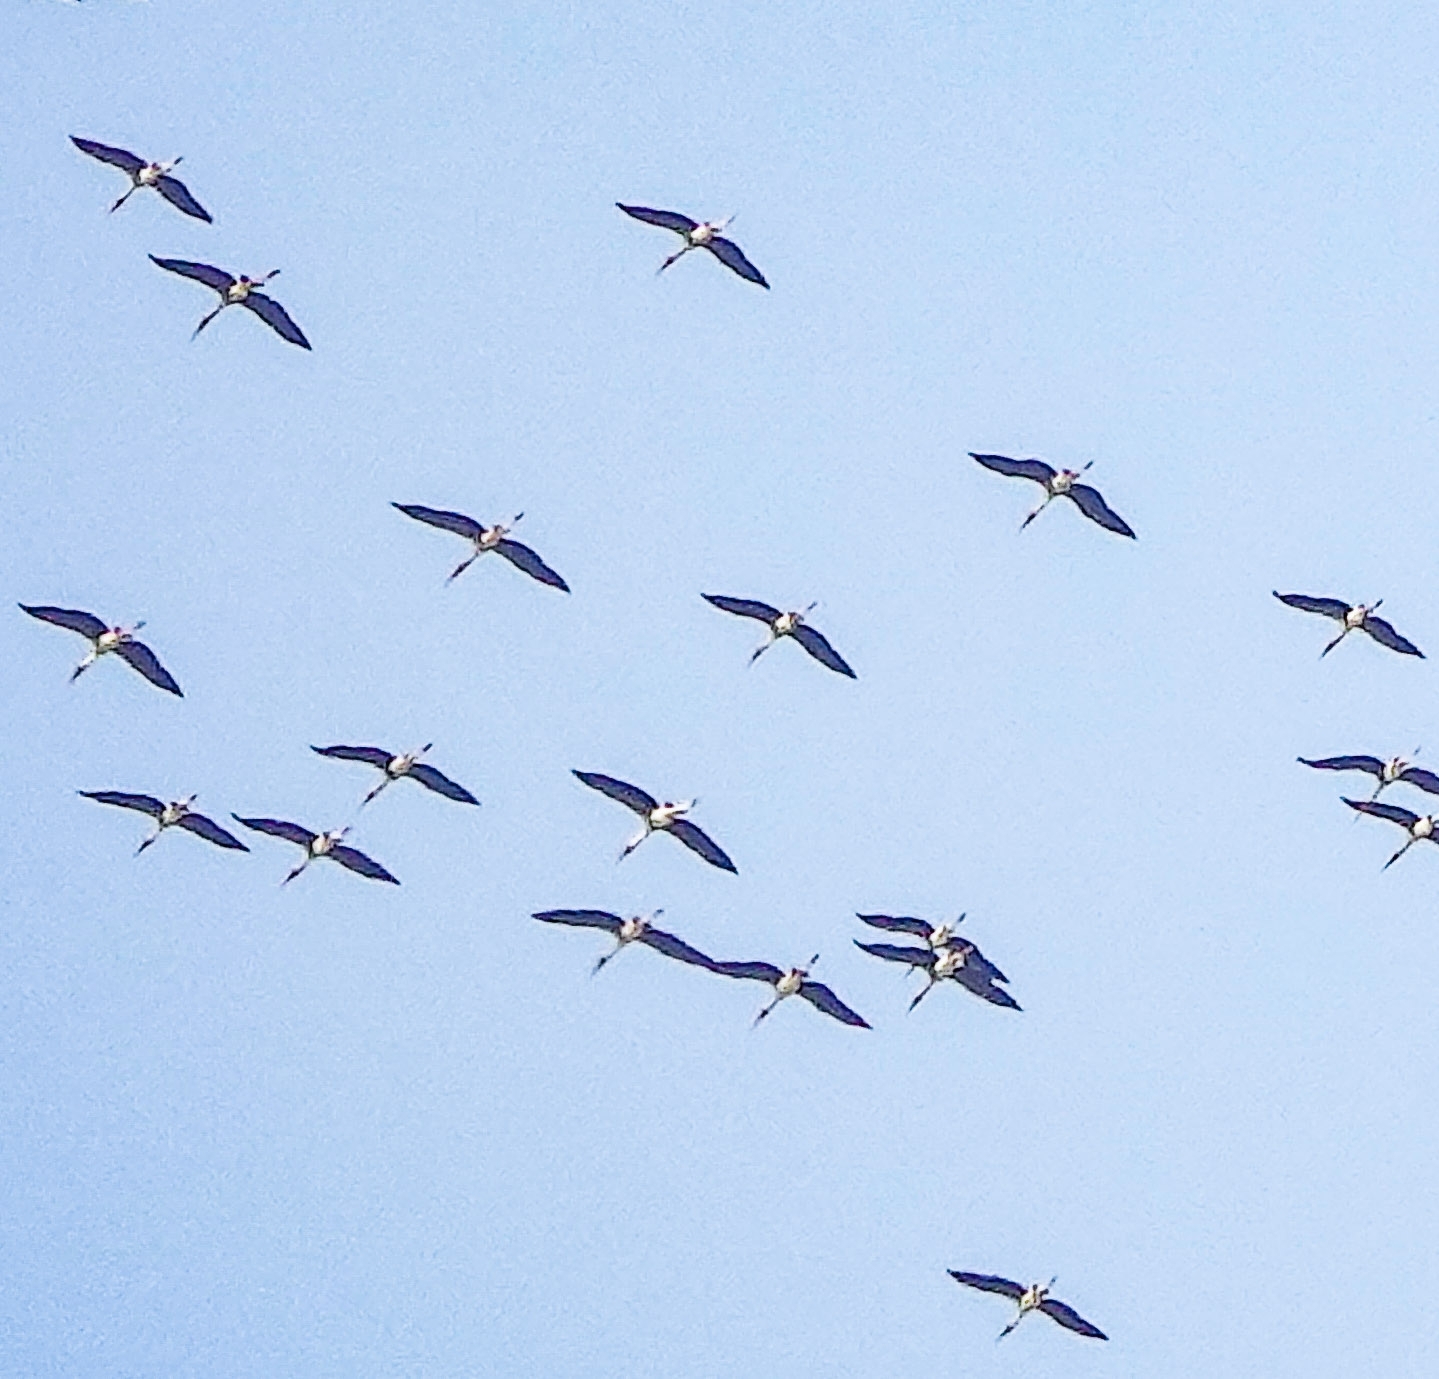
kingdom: Animalia
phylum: Chordata
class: Aves
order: Ciconiiformes
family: Ciconiidae
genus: Mycteria
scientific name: Mycteria leucocephala
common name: Painted stork
